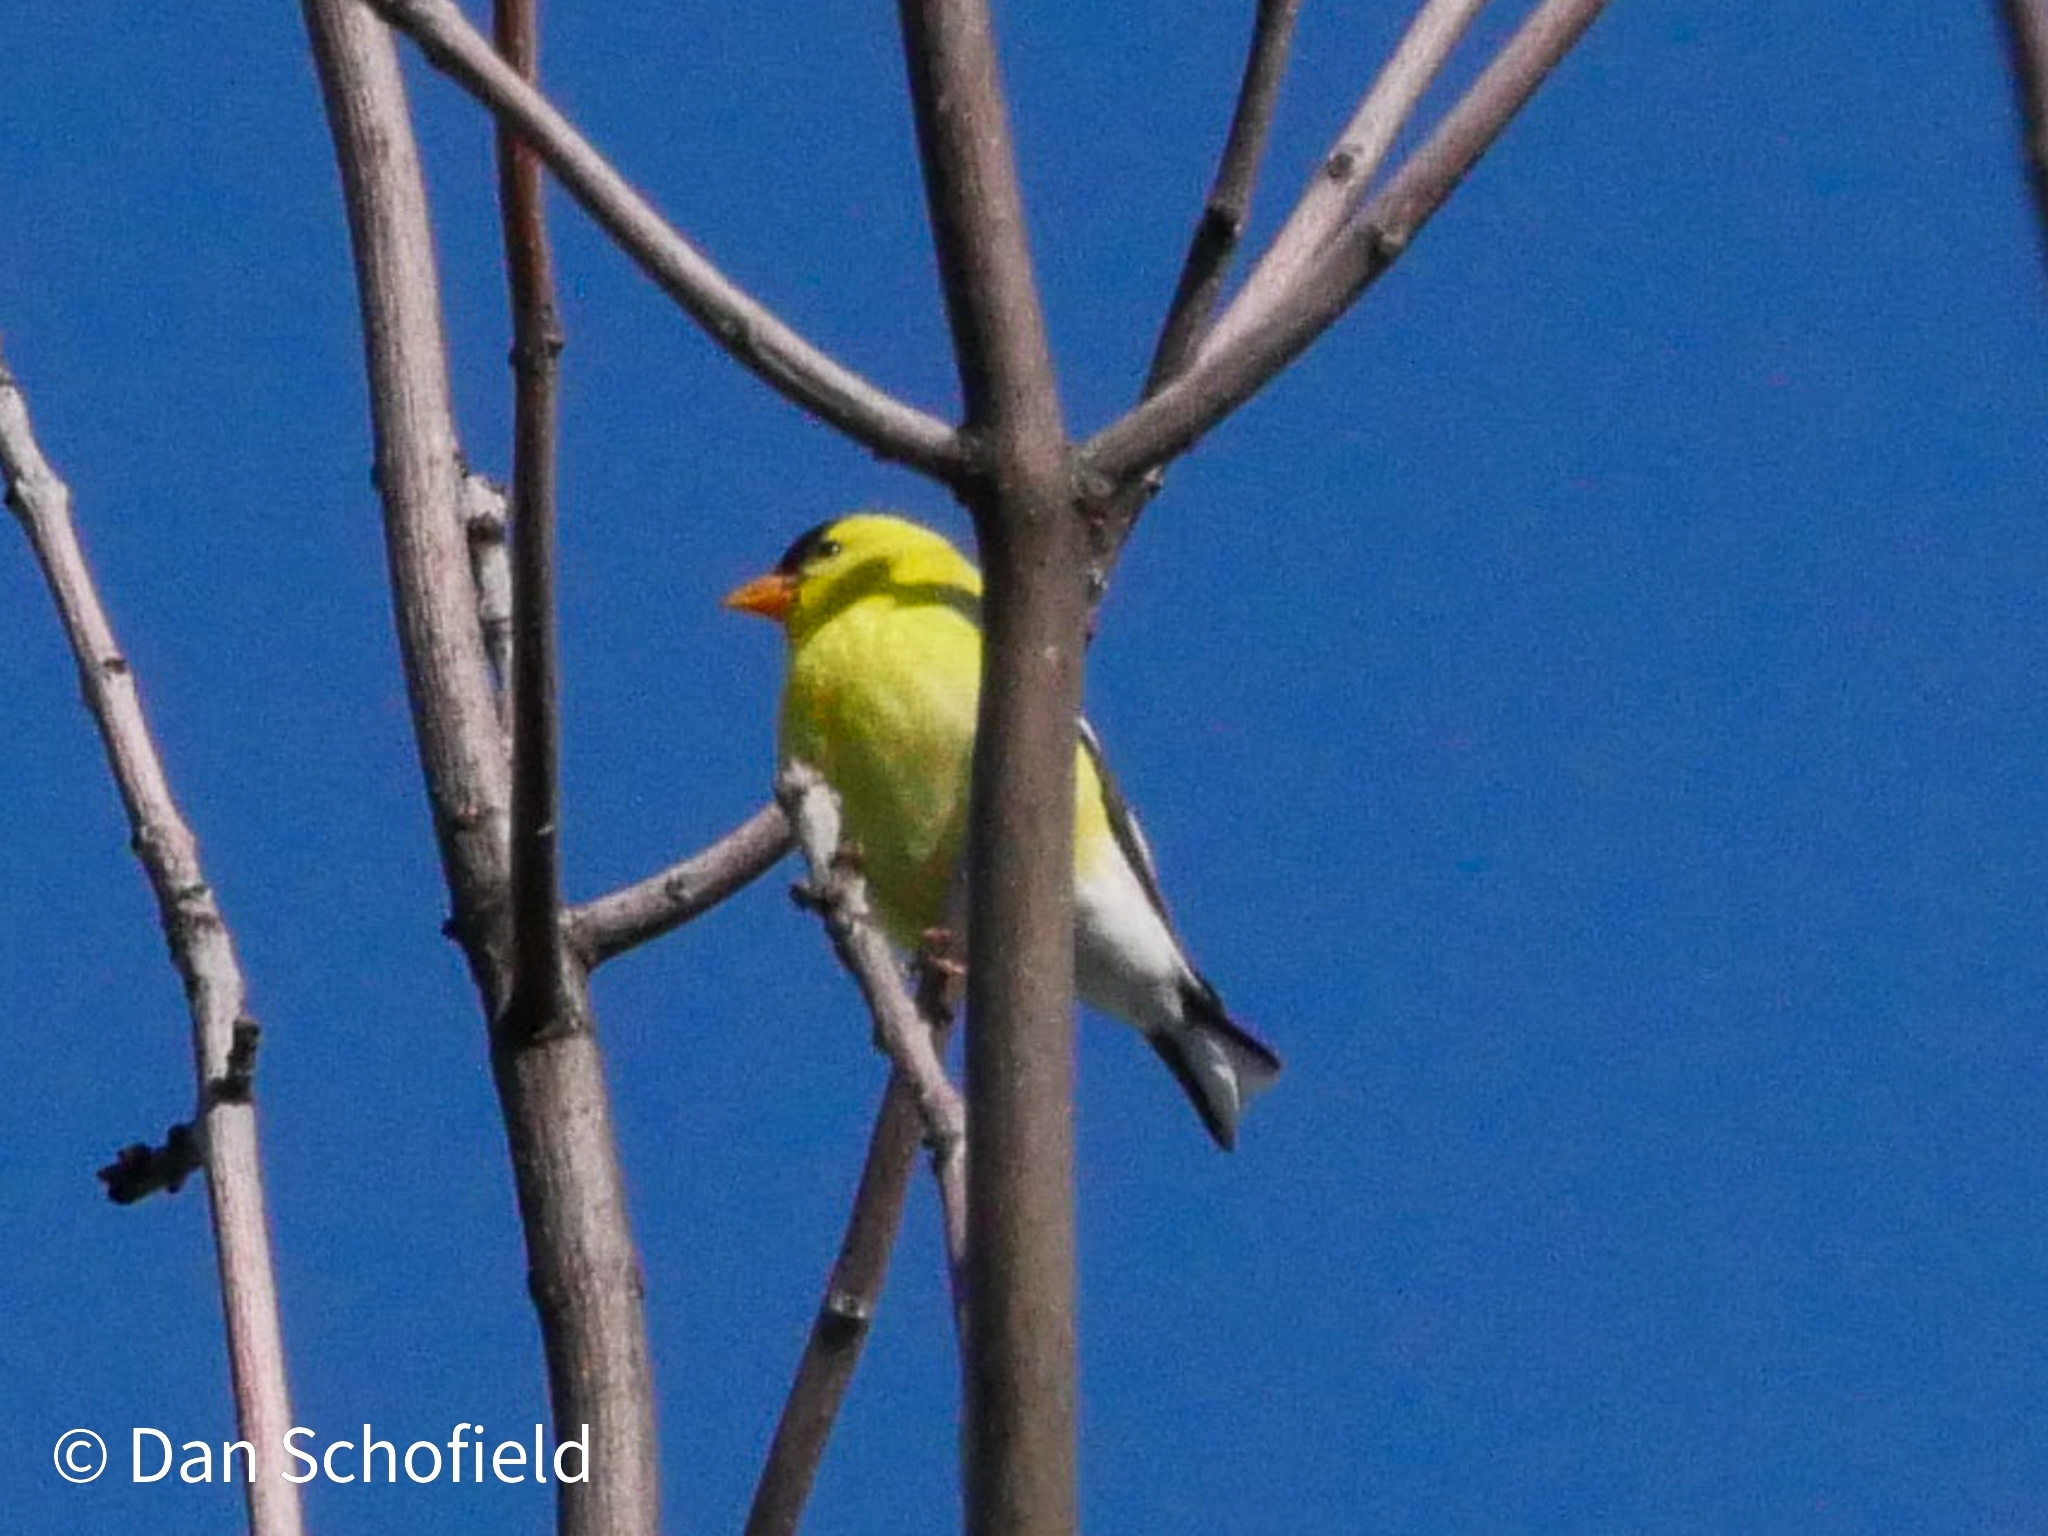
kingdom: Animalia
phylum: Chordata
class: Aves
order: Passeriformes
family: Fringillidae
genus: Spinus
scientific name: Spinus tristis
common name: American goldfinch
